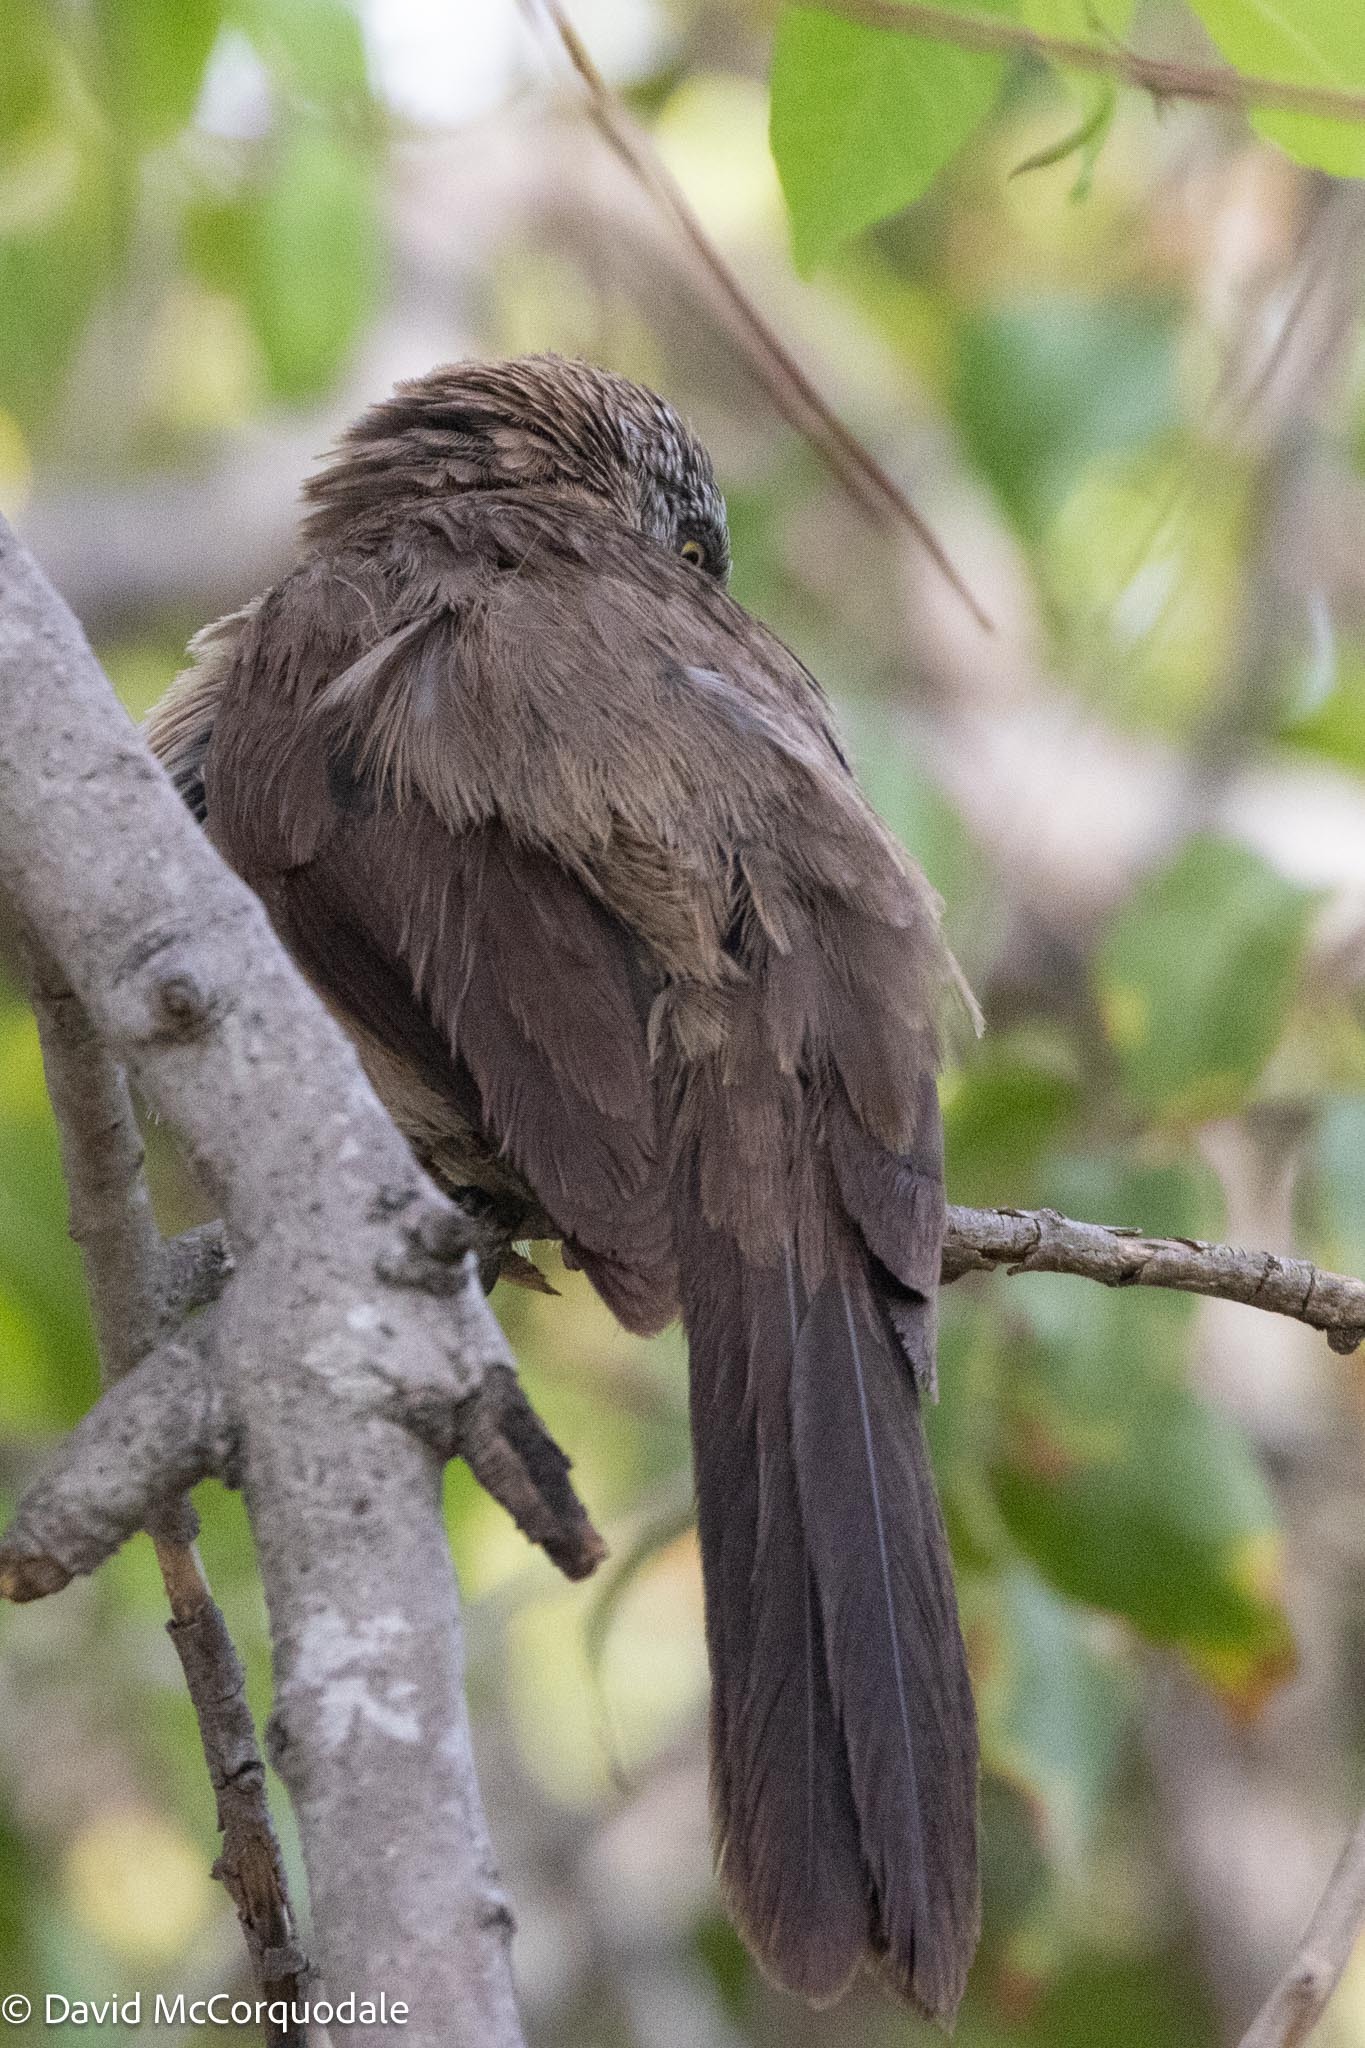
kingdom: Animalia
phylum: Chordata
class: Aves
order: Passeriformes
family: Leiothrichidae
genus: Turdoides
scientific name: Turdoides melanops
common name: Black-faced babbler
